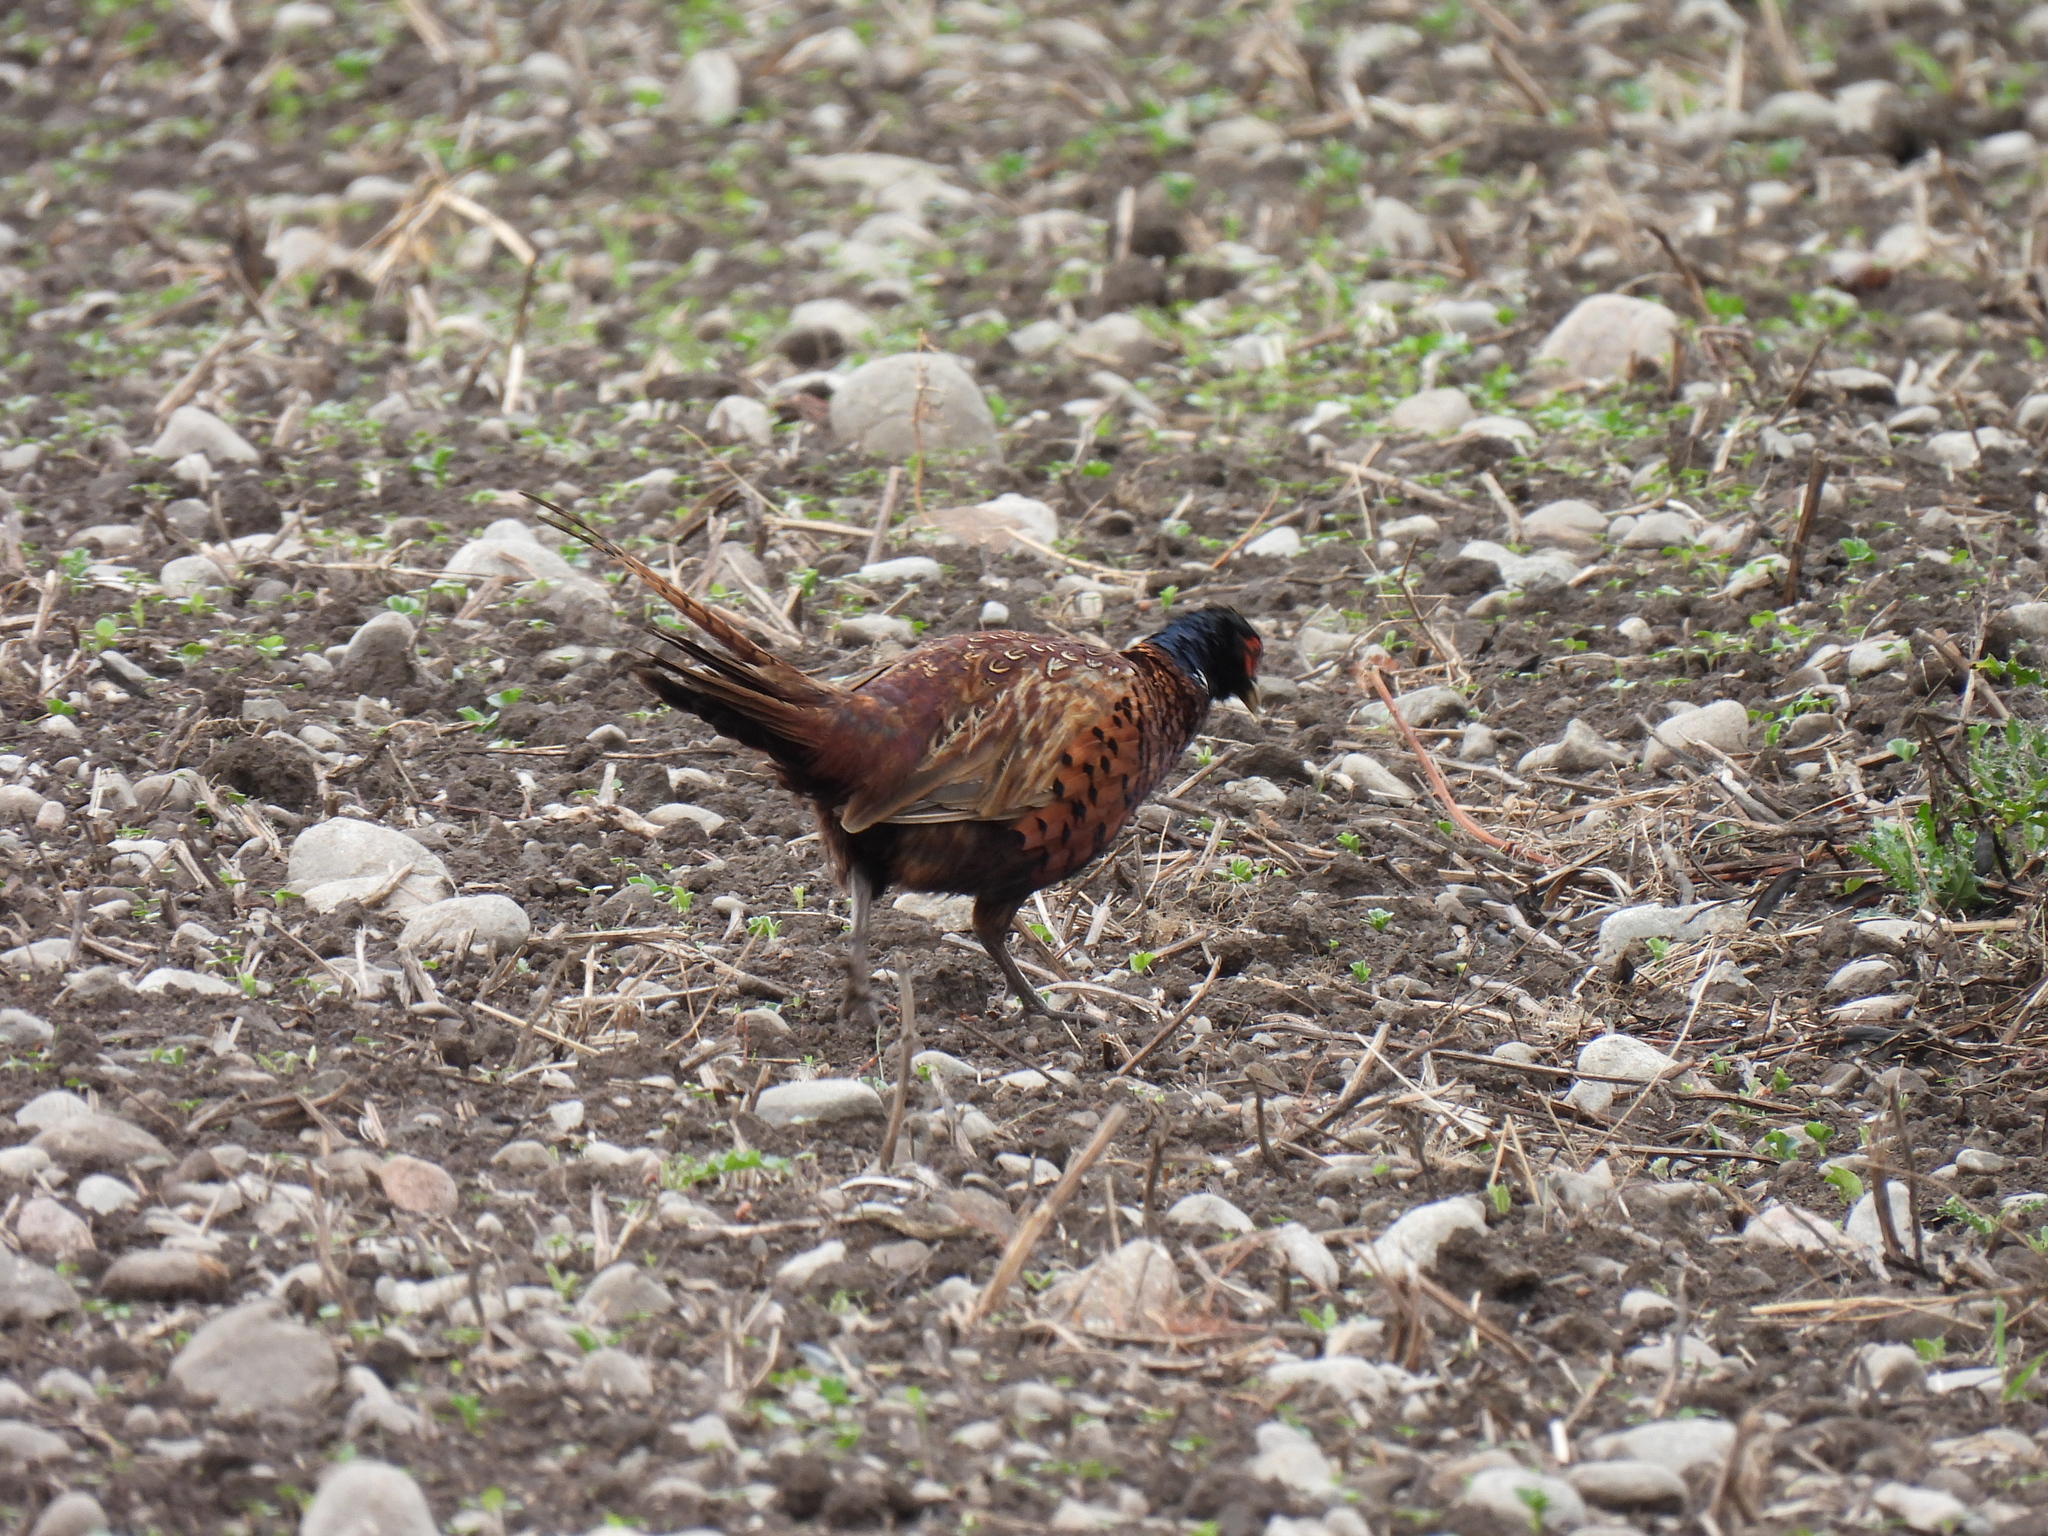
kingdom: Animalia
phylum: Chordata
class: Aves
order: Galliformes
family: Phasianidae
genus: Phasianus
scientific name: Phasianus colchicus
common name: Common pheasant
